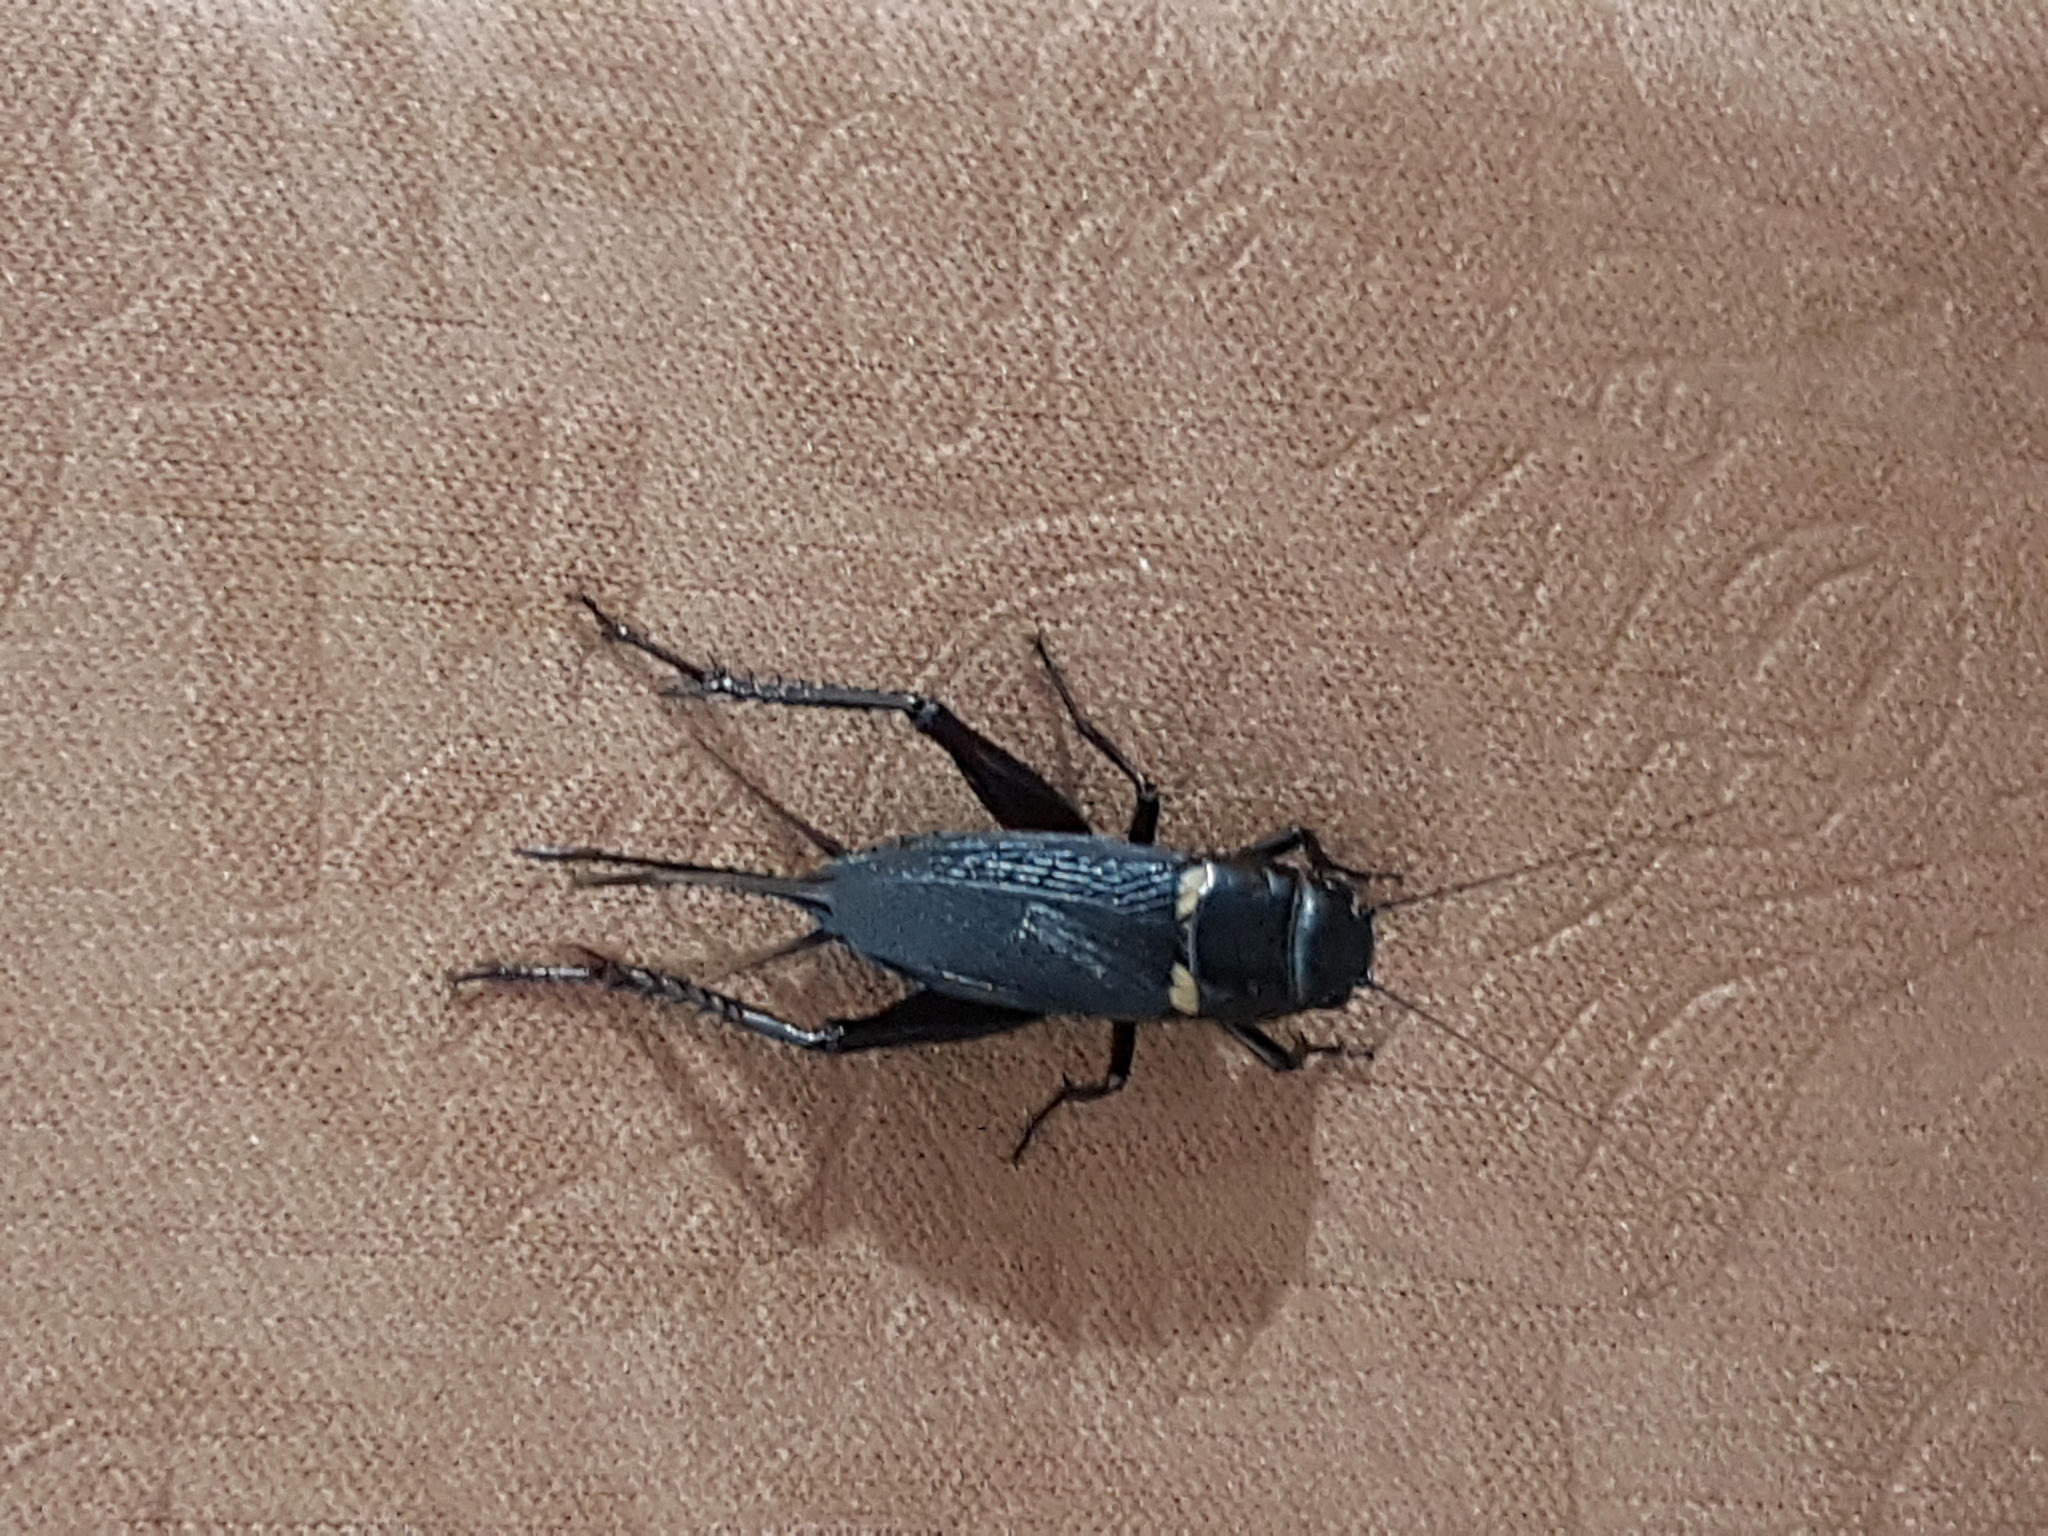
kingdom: Animalia
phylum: Arthropoda
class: Insecta
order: Orthoptera
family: Gryllidae
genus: Gryllus
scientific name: Gryllus bimaculatus
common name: Two-spotted cricket
